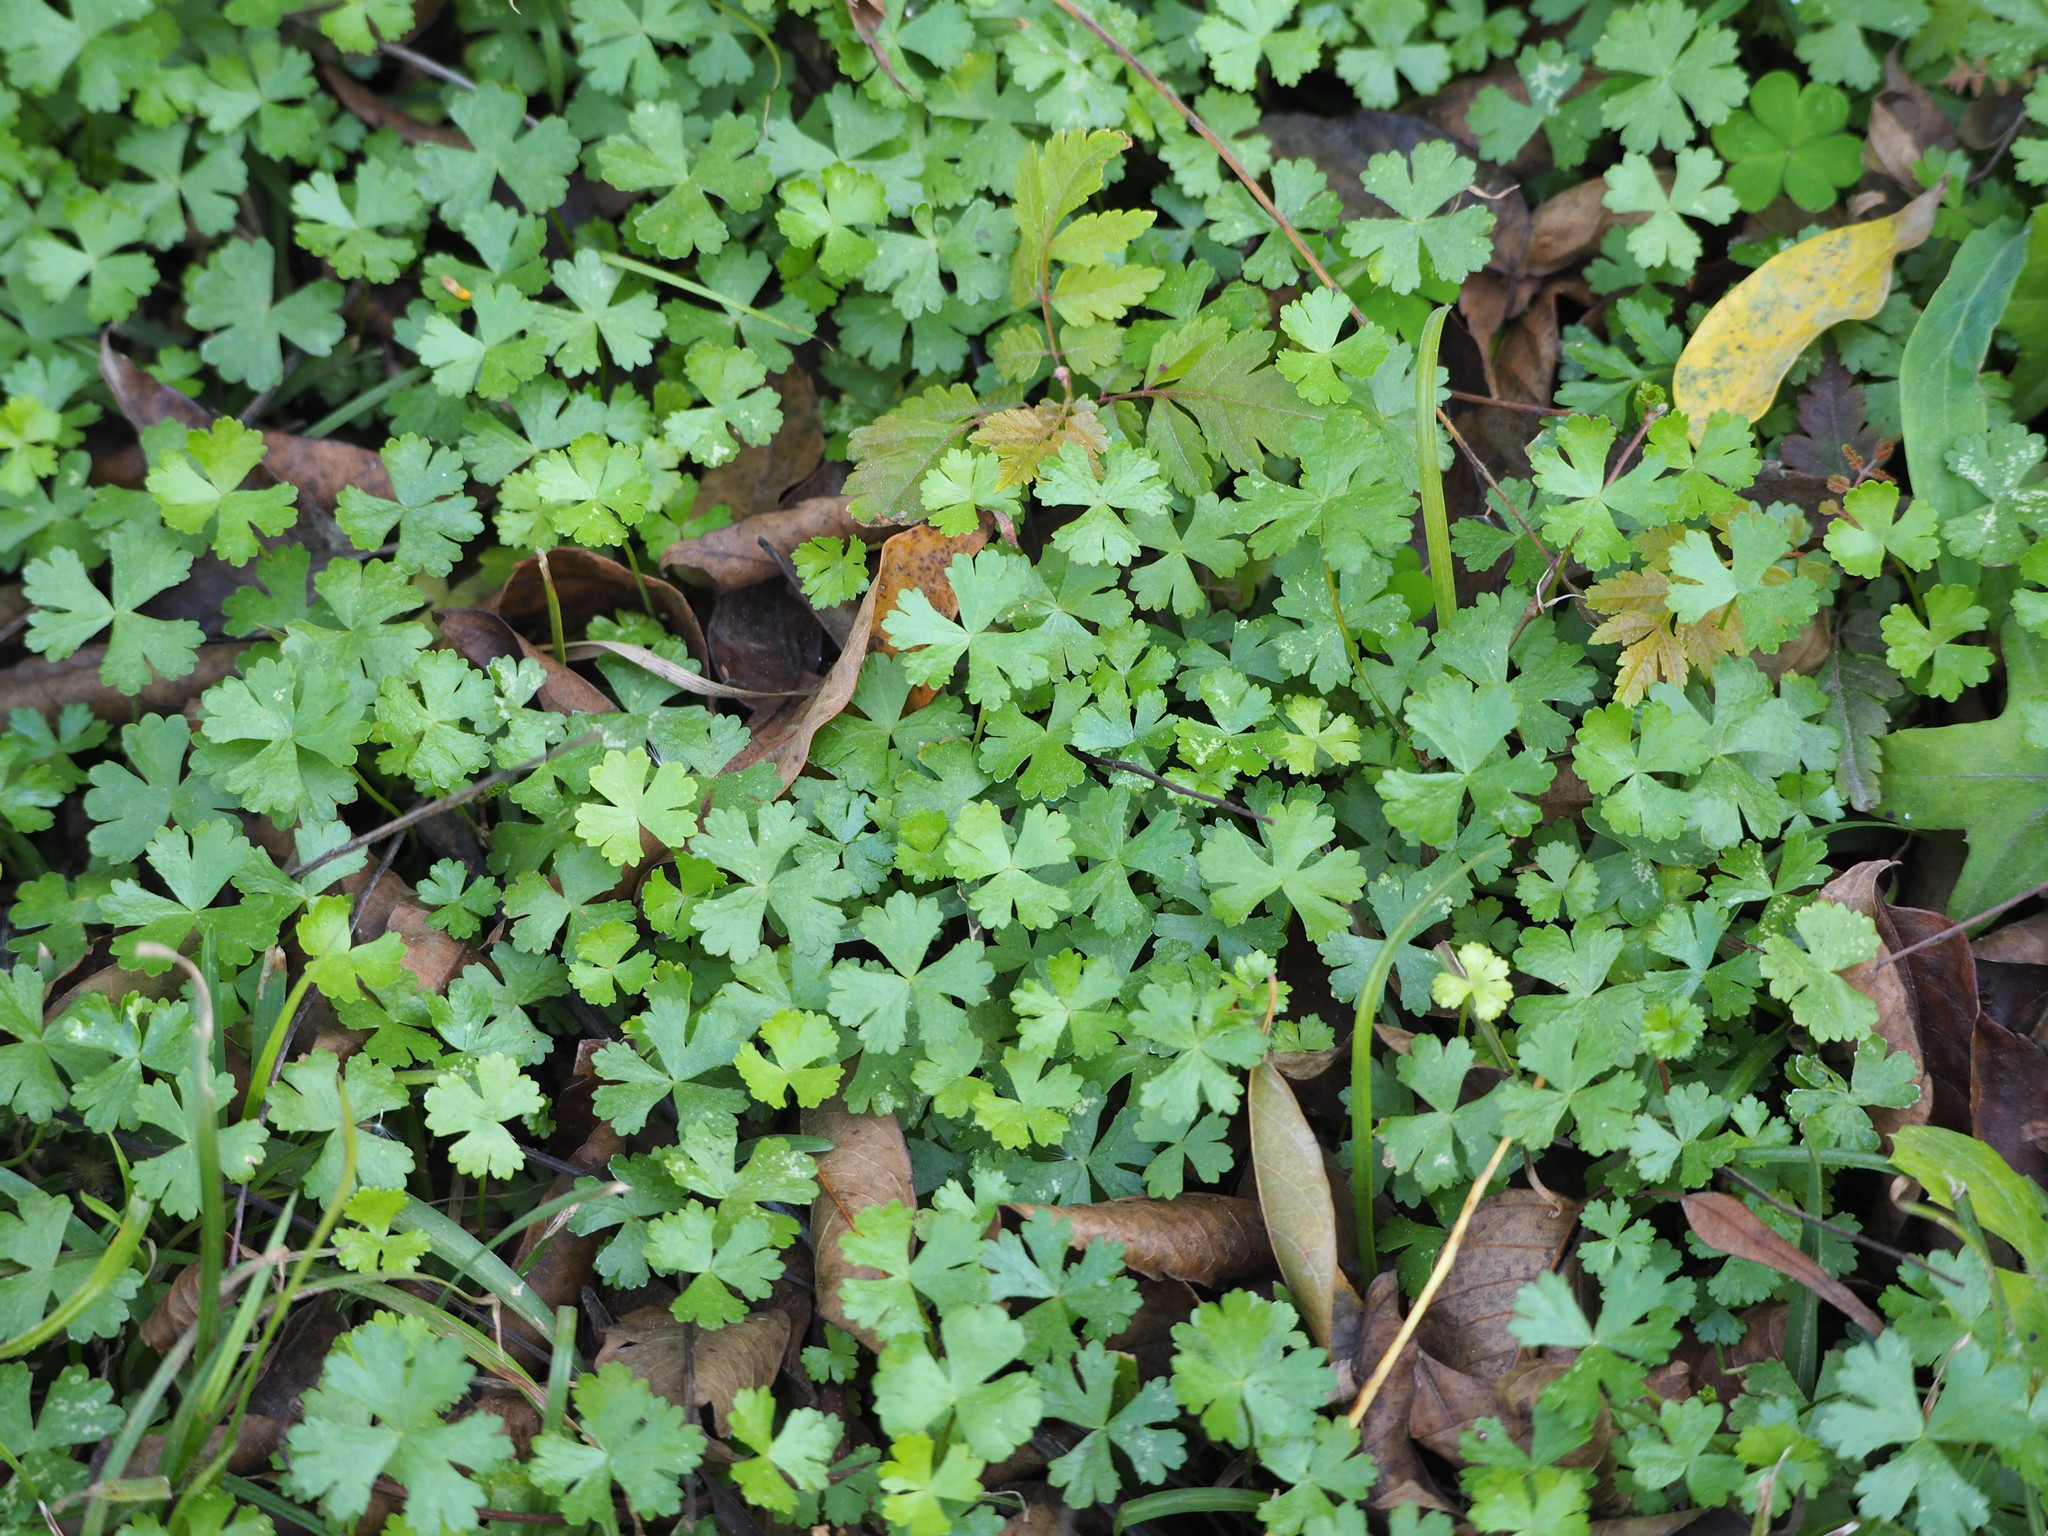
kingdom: Plantae
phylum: Tracheophyta
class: Magnoliopsida
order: Apiales
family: Araliaceae
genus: Hydrocotyle
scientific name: Hydrocotyle batrachium
